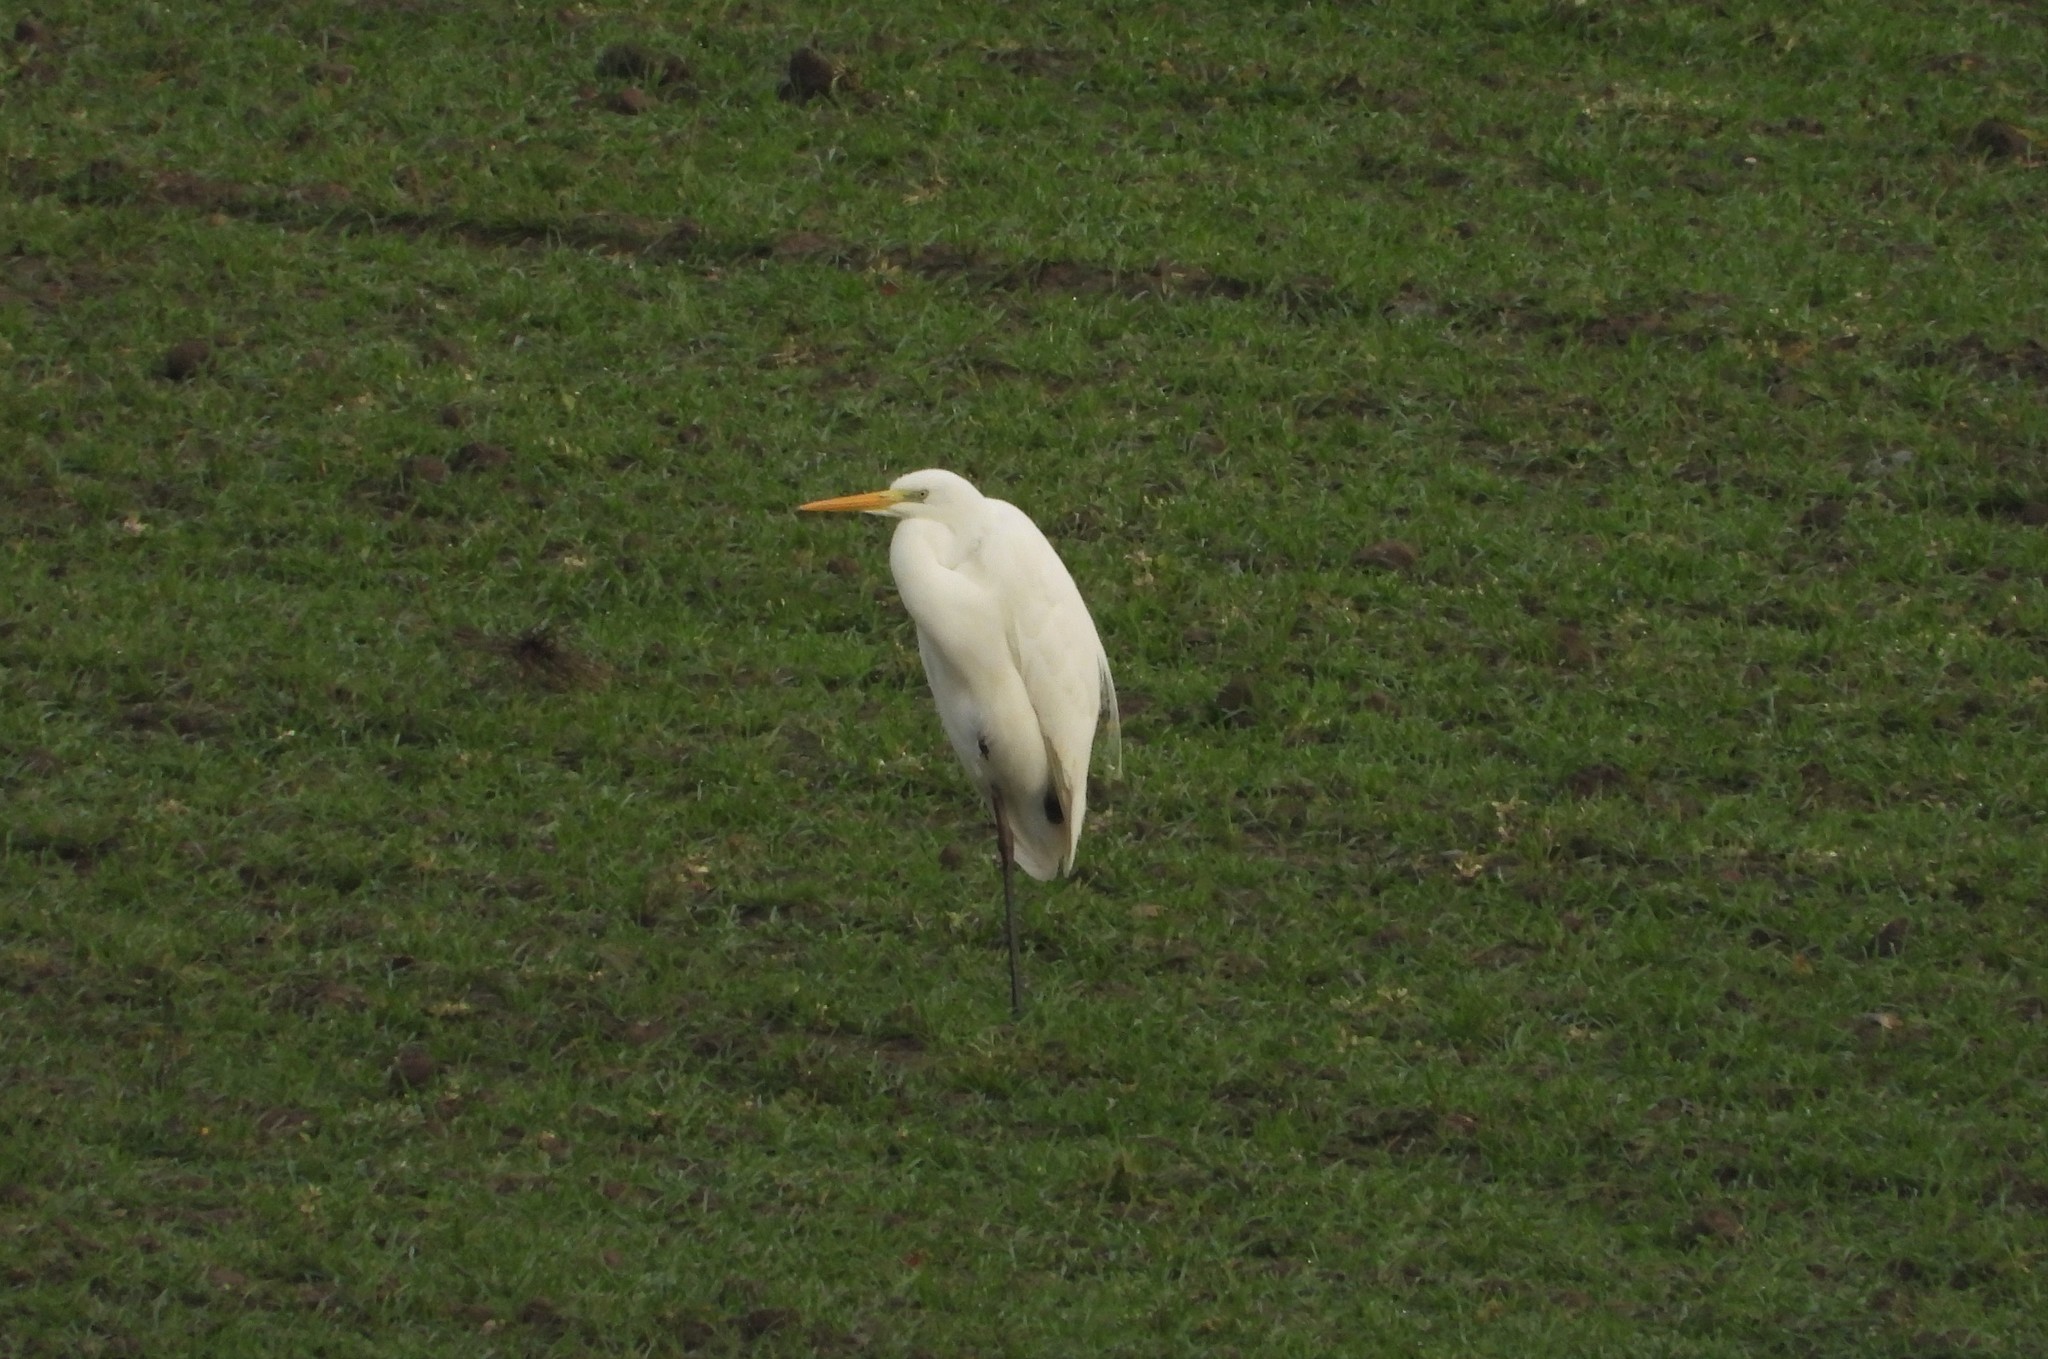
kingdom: Animalia
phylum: Chordata
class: Aves
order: Pelecaniformes
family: Ardeidae
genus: Ardea
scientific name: Ardea alba
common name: Great egret
